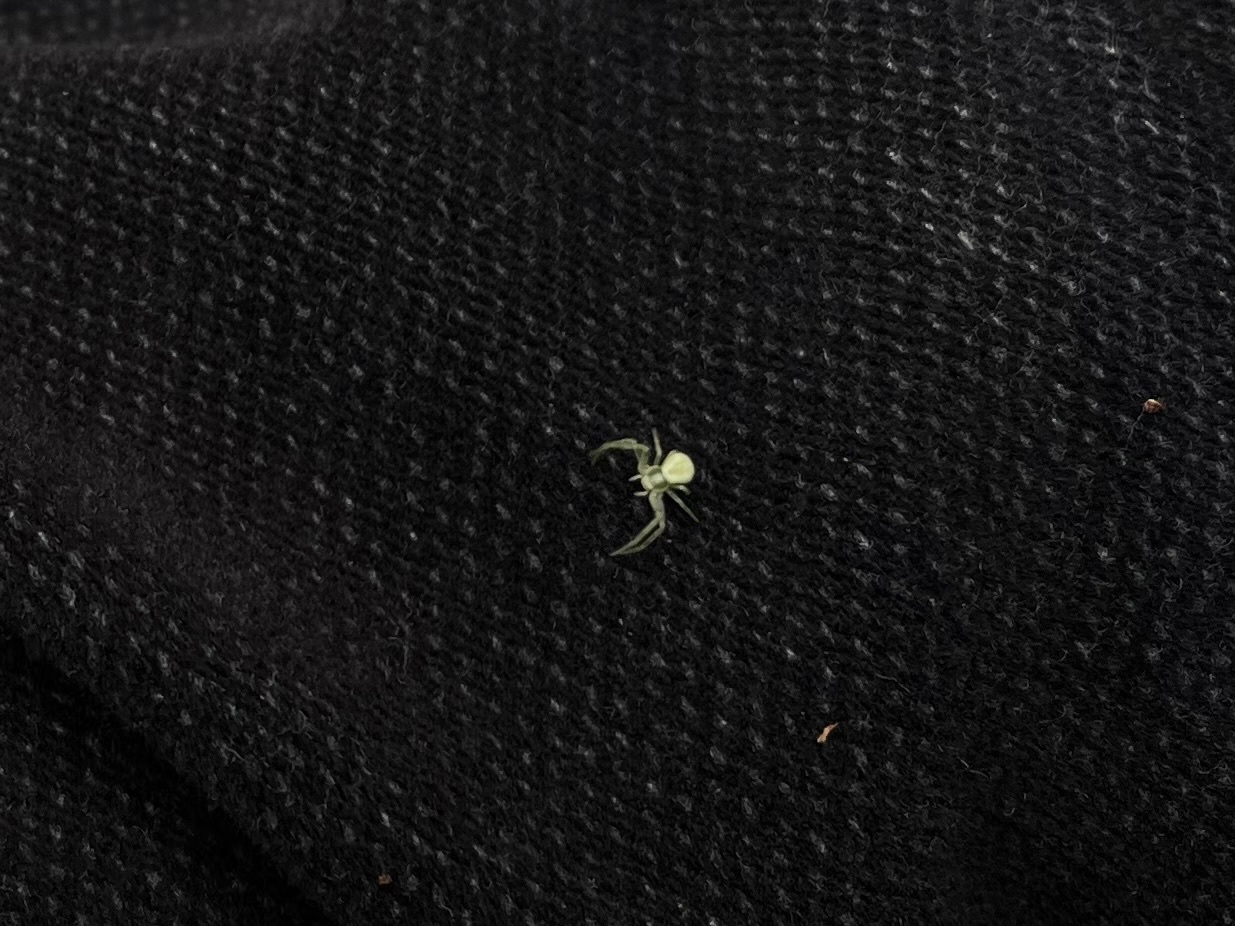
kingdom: Animalia
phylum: Arthropoda
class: Arachnida
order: Araneae
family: Thomisidae
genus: Misumena
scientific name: Misumena vatia
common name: Goldenrod crab spider
